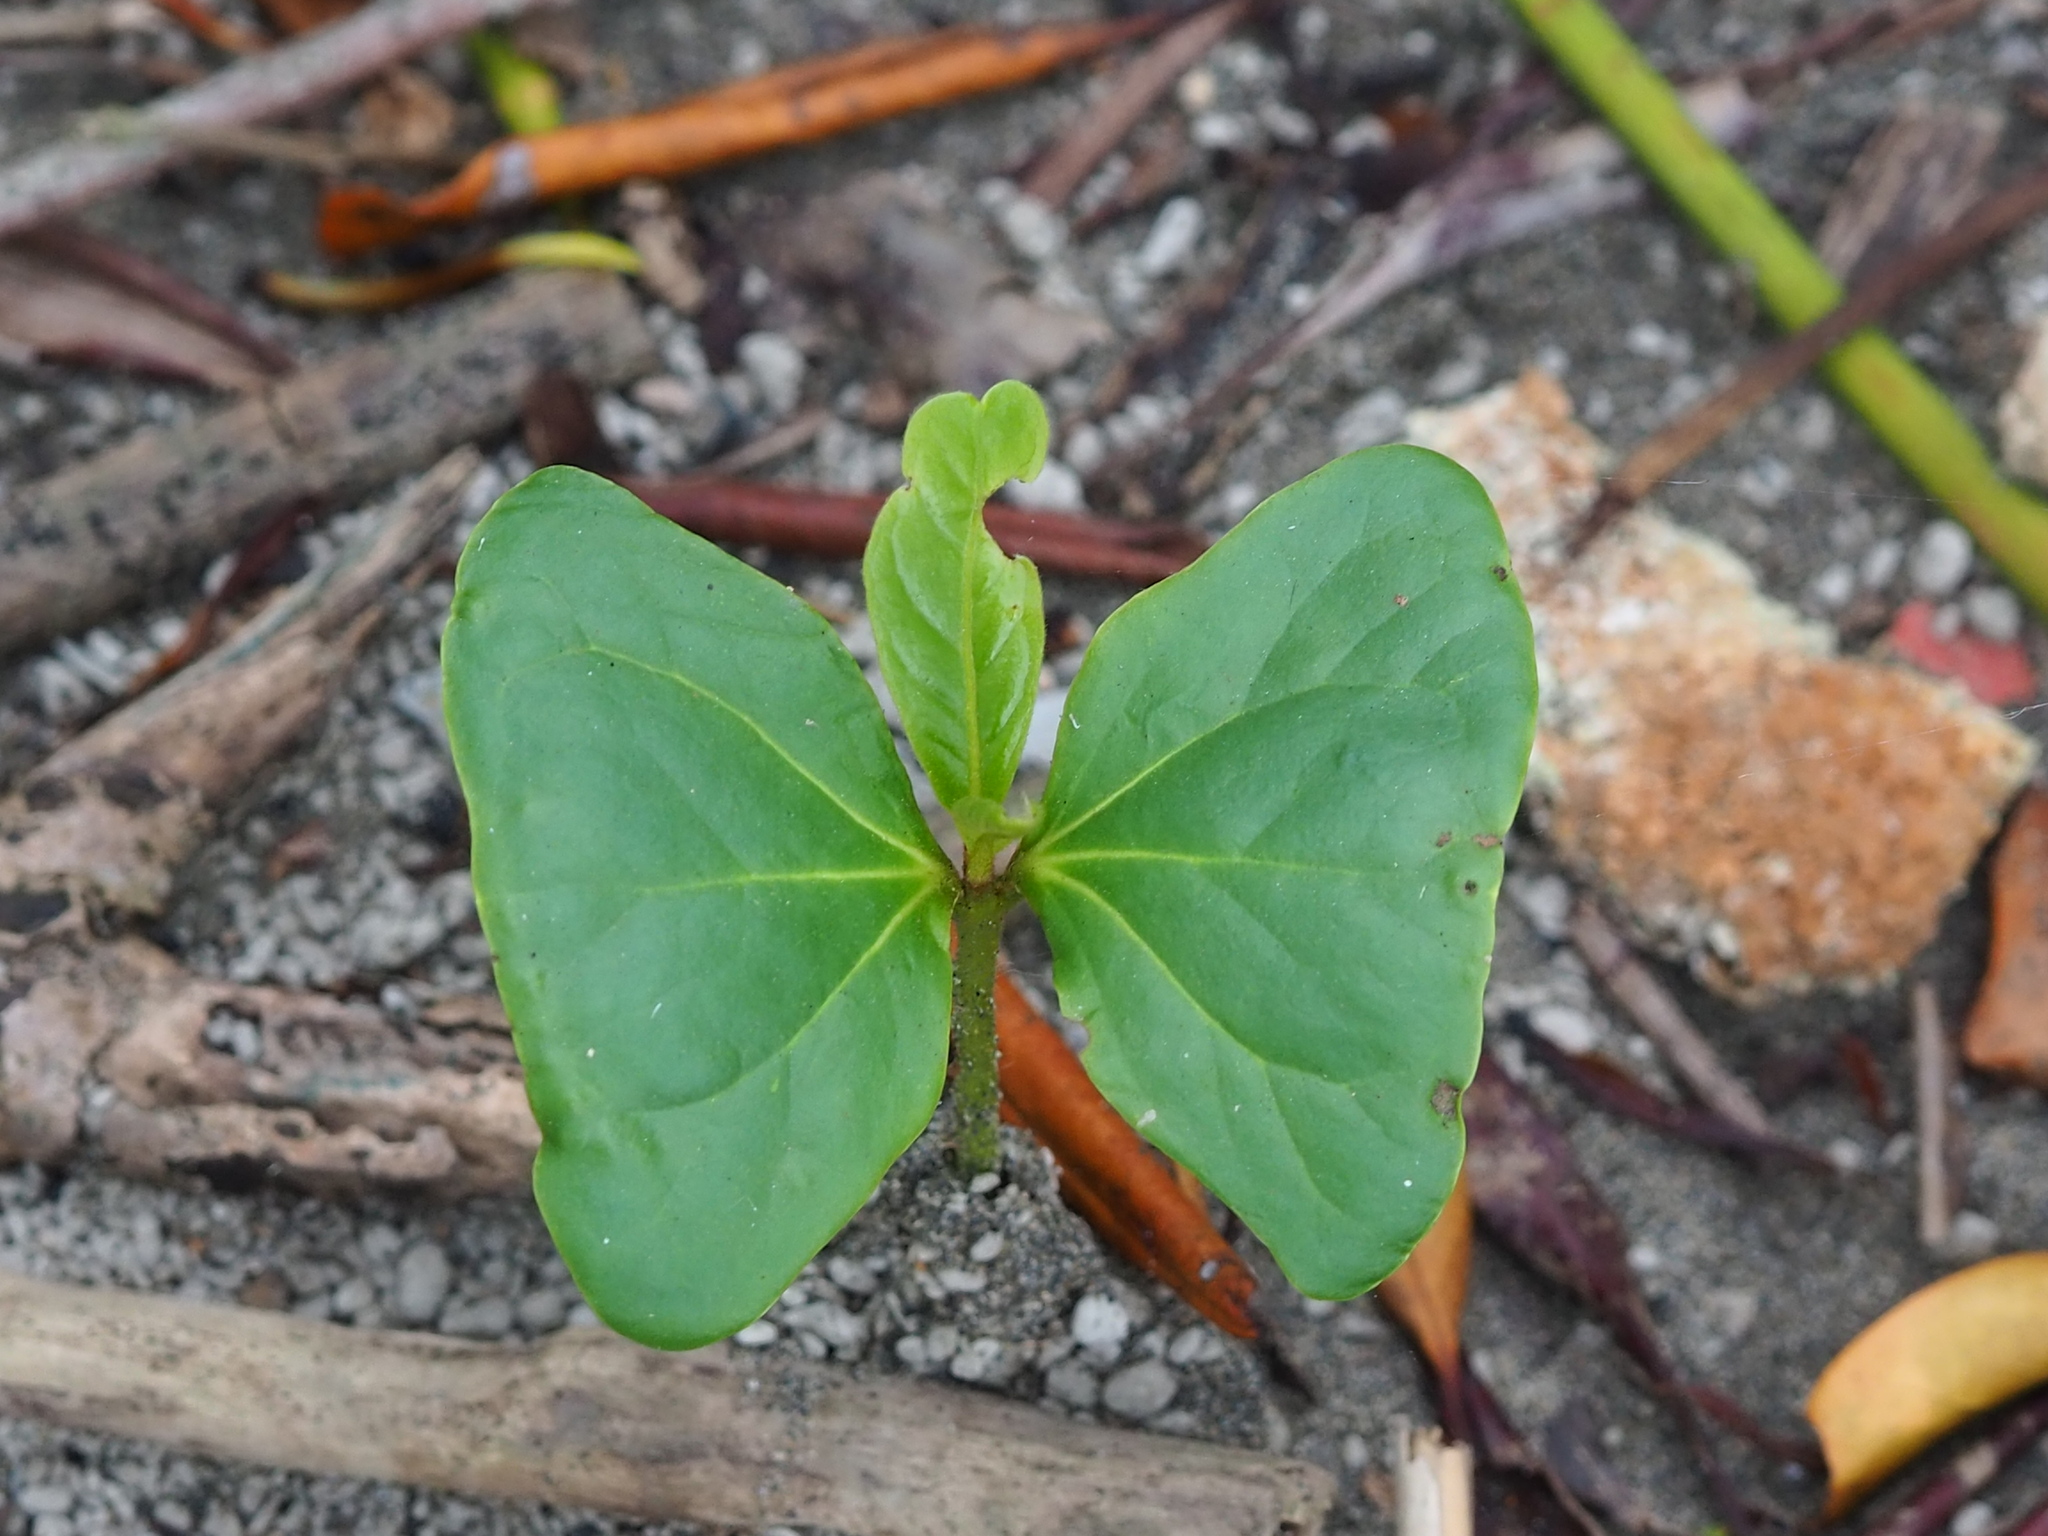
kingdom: Plantae
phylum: Tracheophyta
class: Magnoliopsida
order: Myrtales
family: Combretaceae
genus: Terminalia
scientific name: Terminalia catappa
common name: Tropical almond
